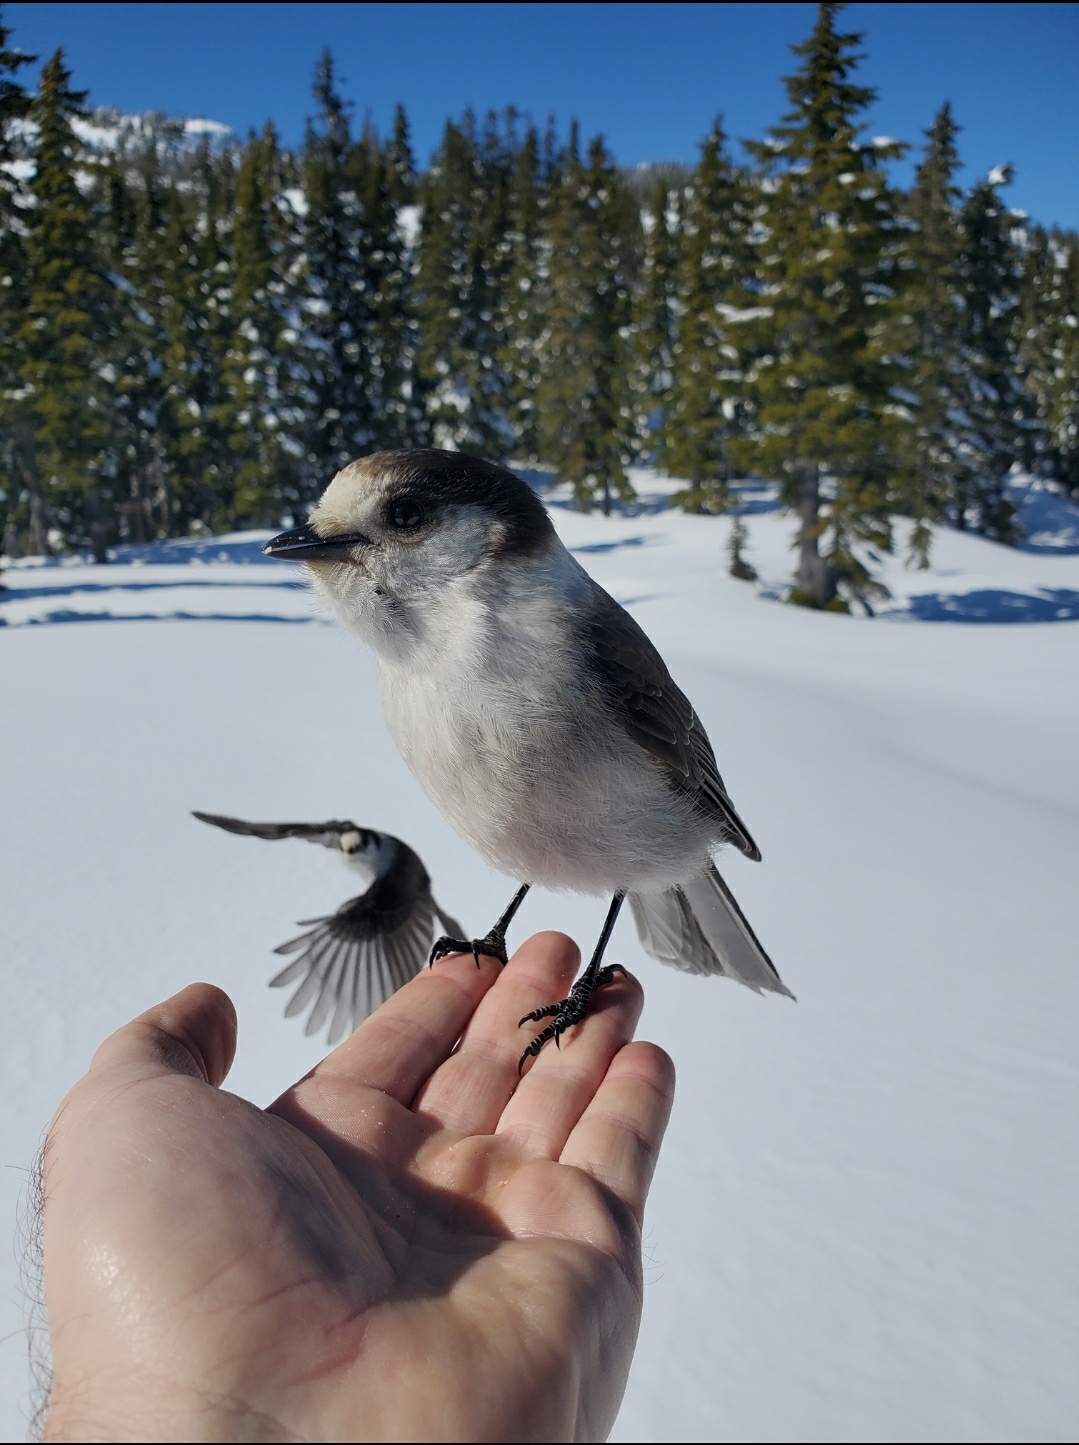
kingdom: Animalia
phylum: Chordata
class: Aves
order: Passeriformes
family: Corvidae
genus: Perisoreus
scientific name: Perisoreus canadensis
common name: Gray jay
